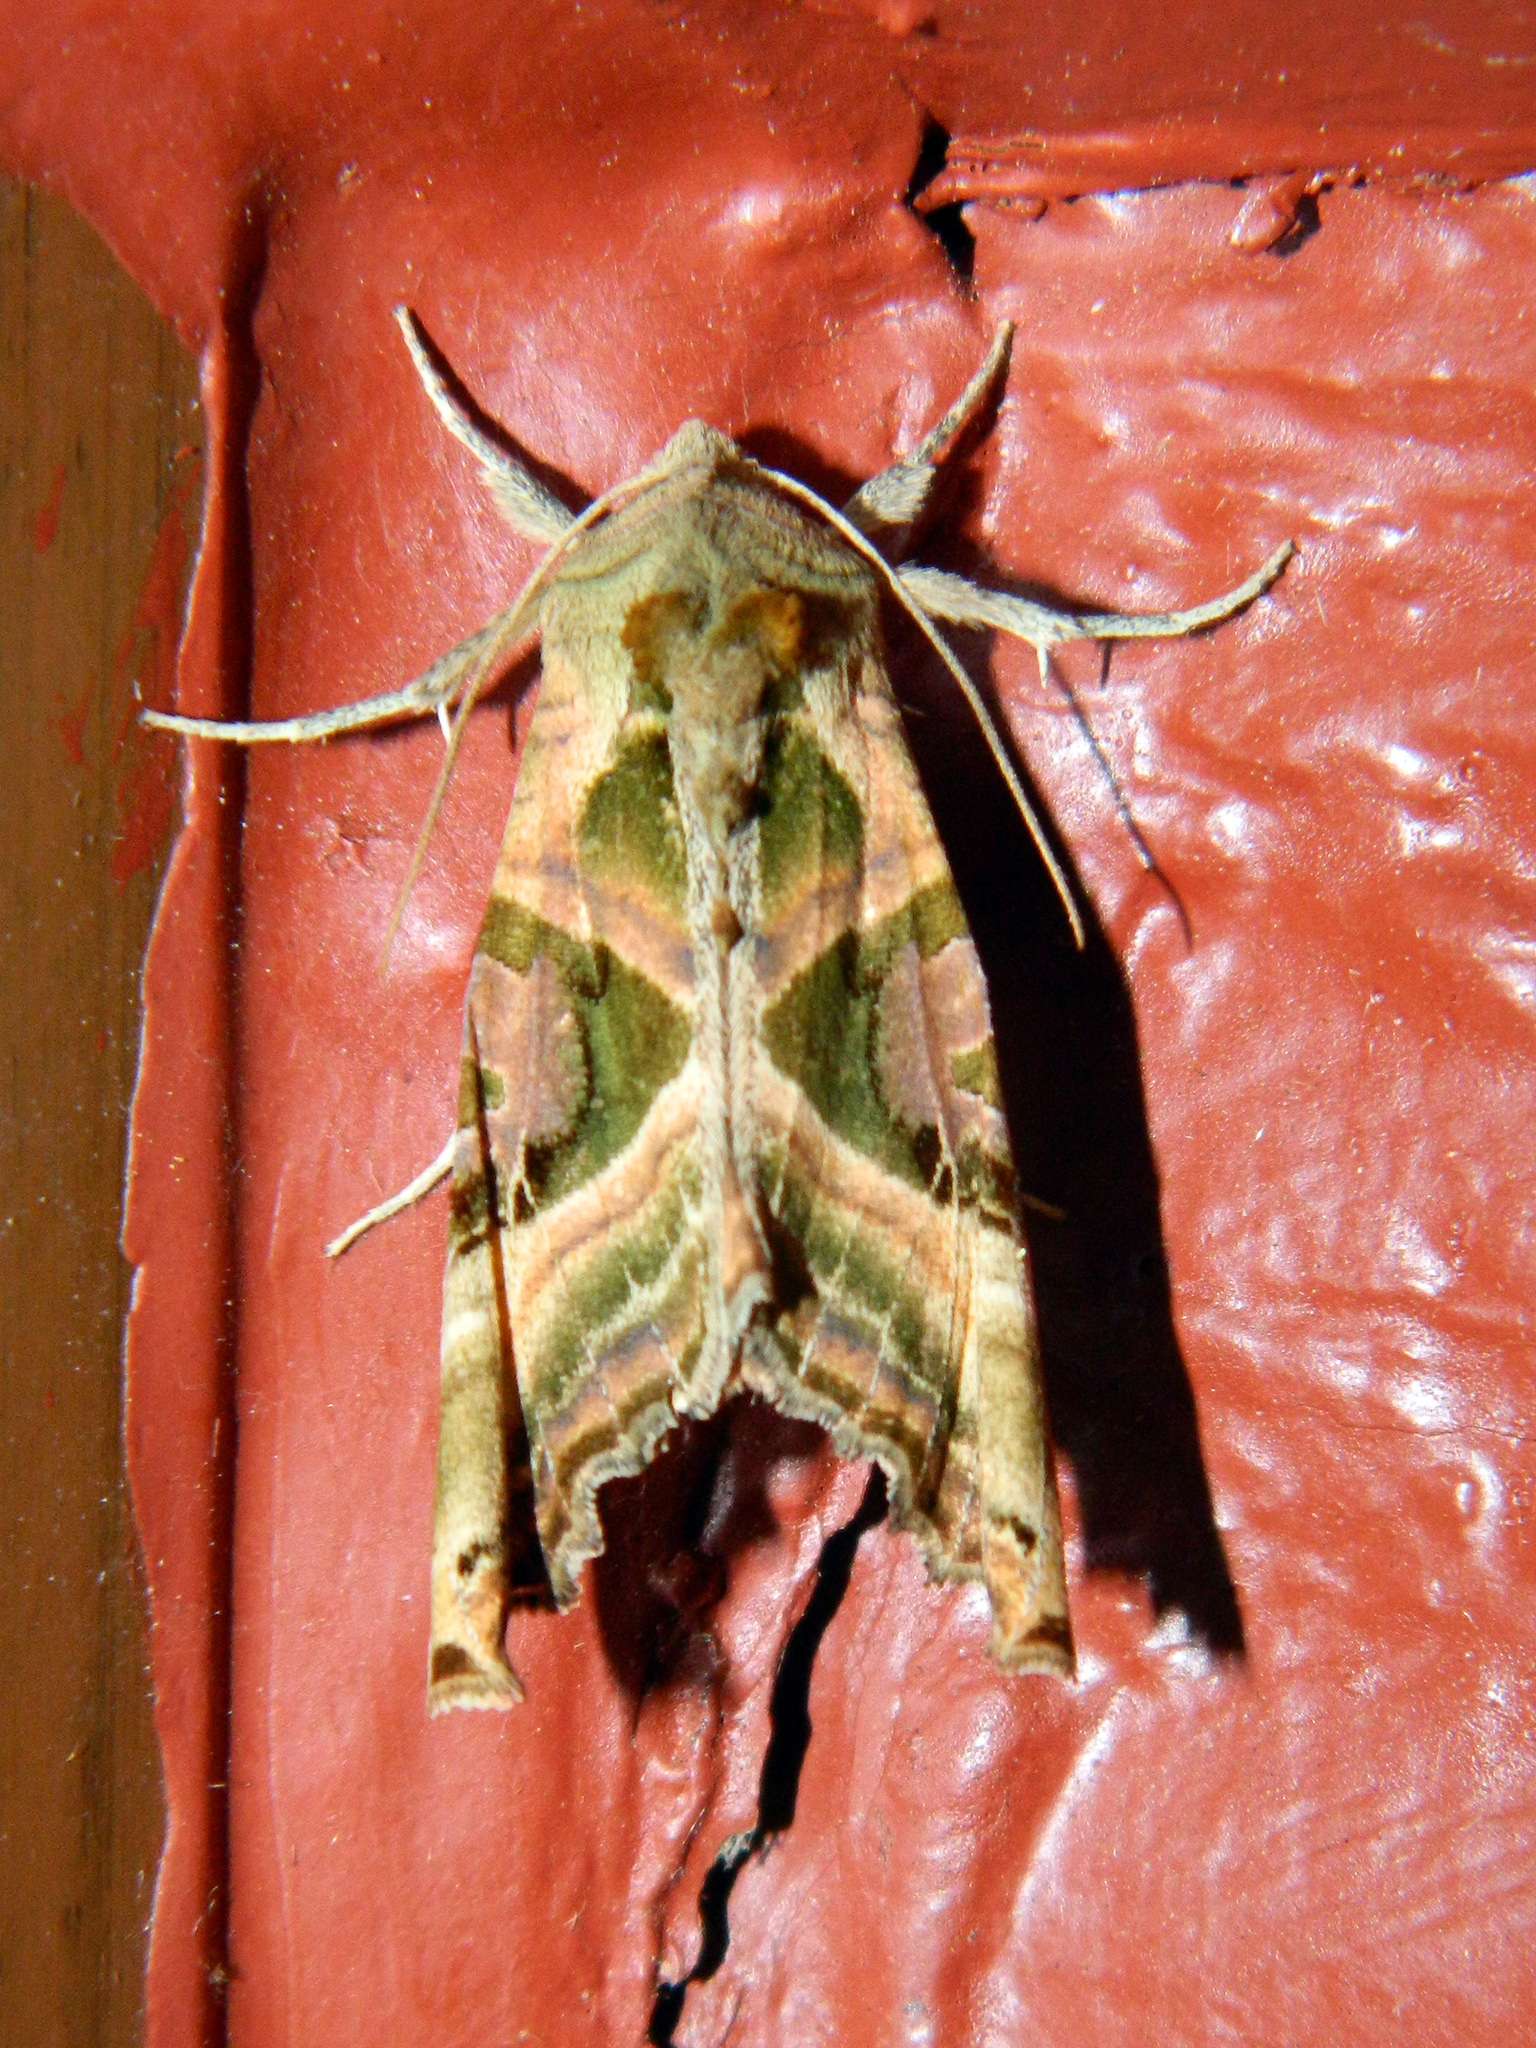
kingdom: Animalia
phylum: Arthropoda
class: Insecta
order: Lepidoptera
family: Noctuidae
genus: Phlogophora
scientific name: Phlogophora iris
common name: Olive angle shades
